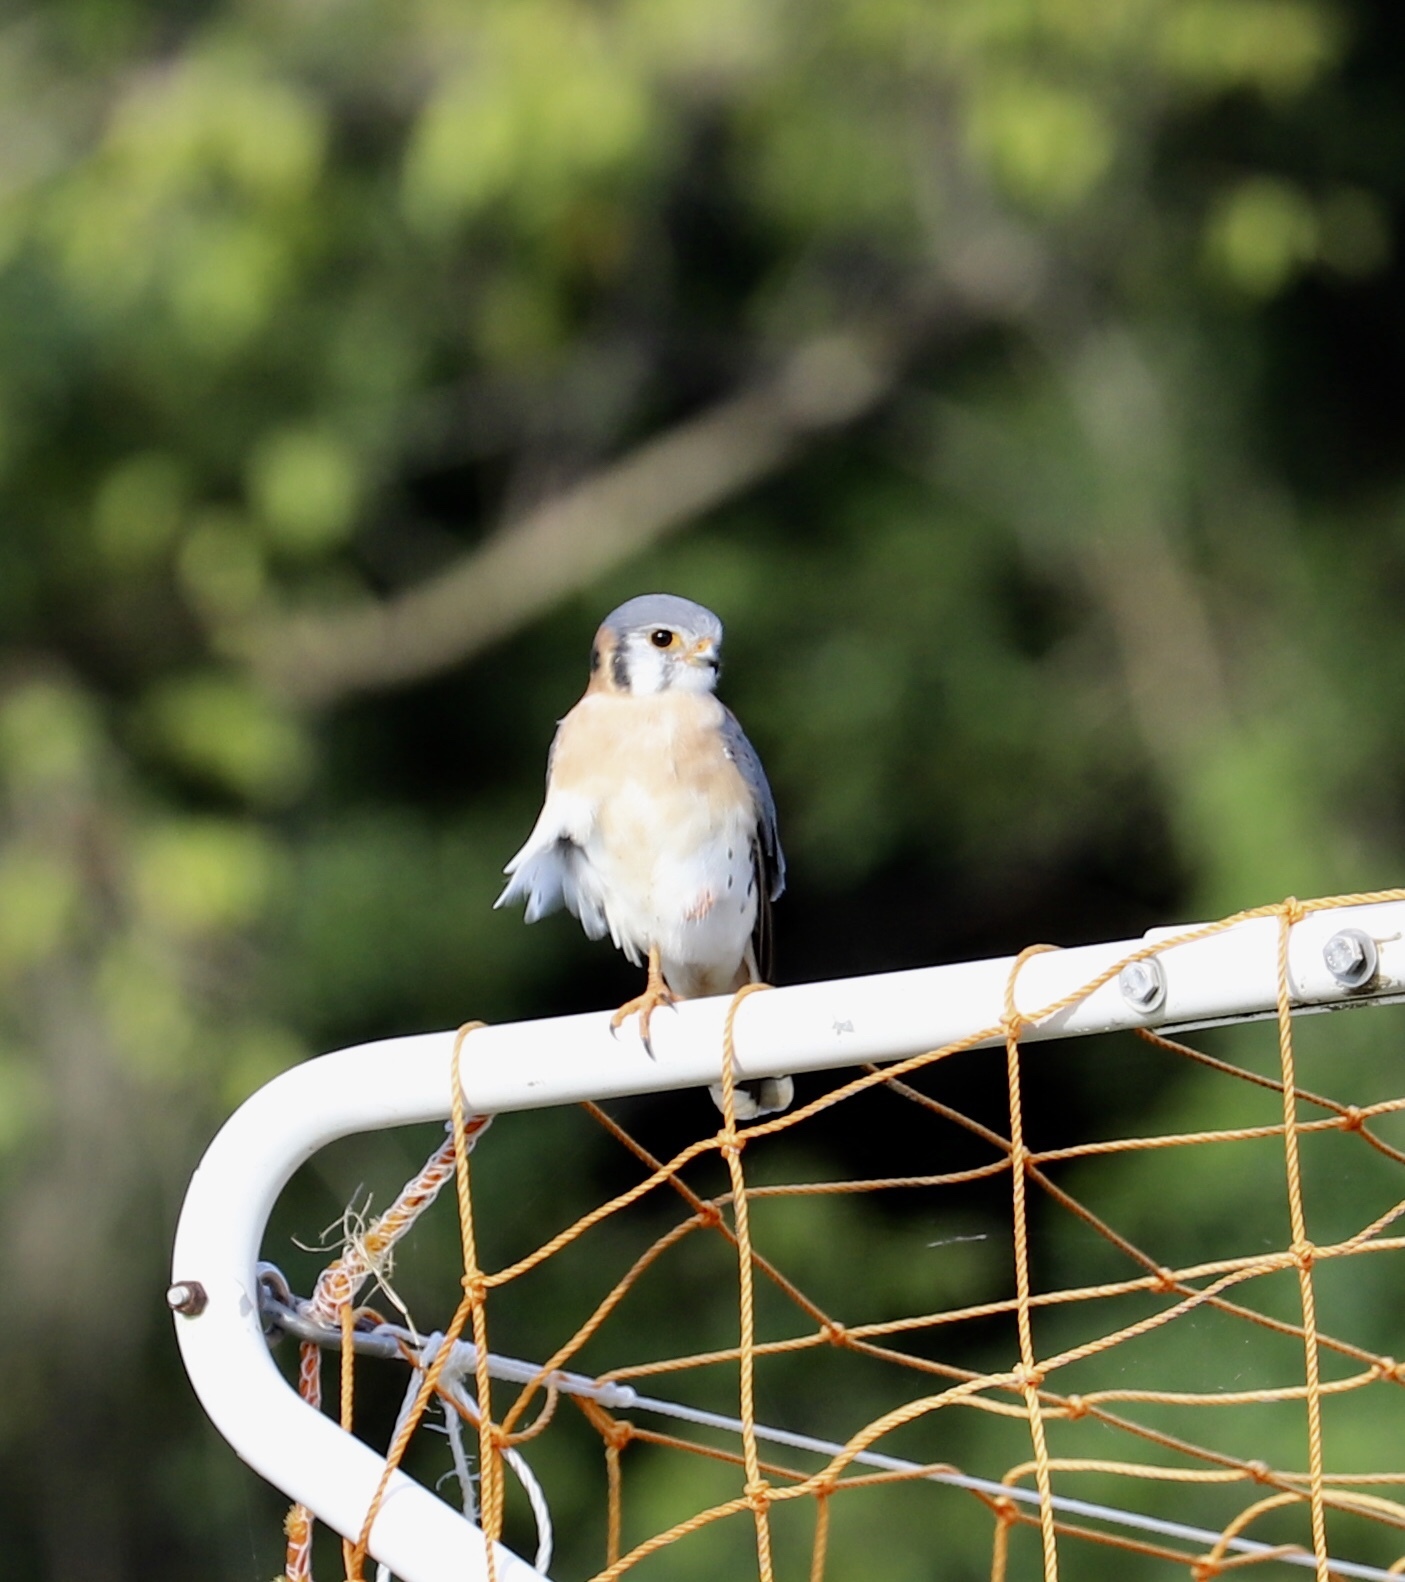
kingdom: Animalia
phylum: Chordata
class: Aves
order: Falconiformes
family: Falconidae
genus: Falco
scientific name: Falco sparverius
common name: American kestrel
